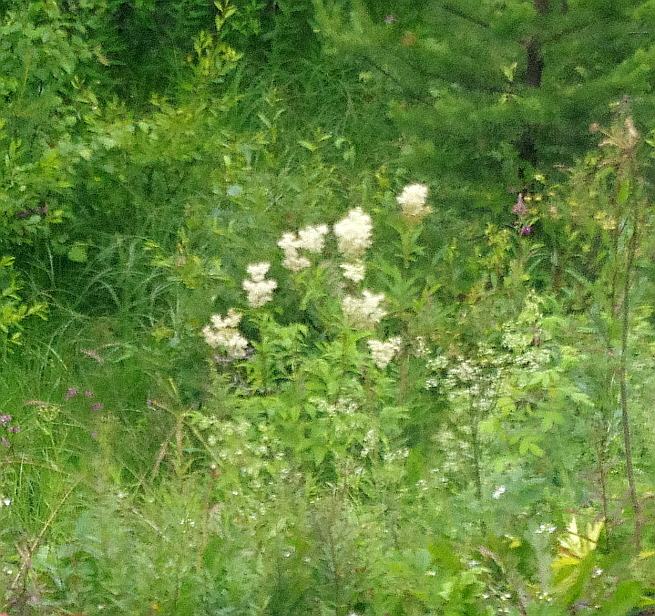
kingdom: Plantae
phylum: Tracheophyta
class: Magnoliopsida
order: Rosales
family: Rosaceae
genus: Filipendula
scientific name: Filipendula ulmaria
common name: Meadowsweet
